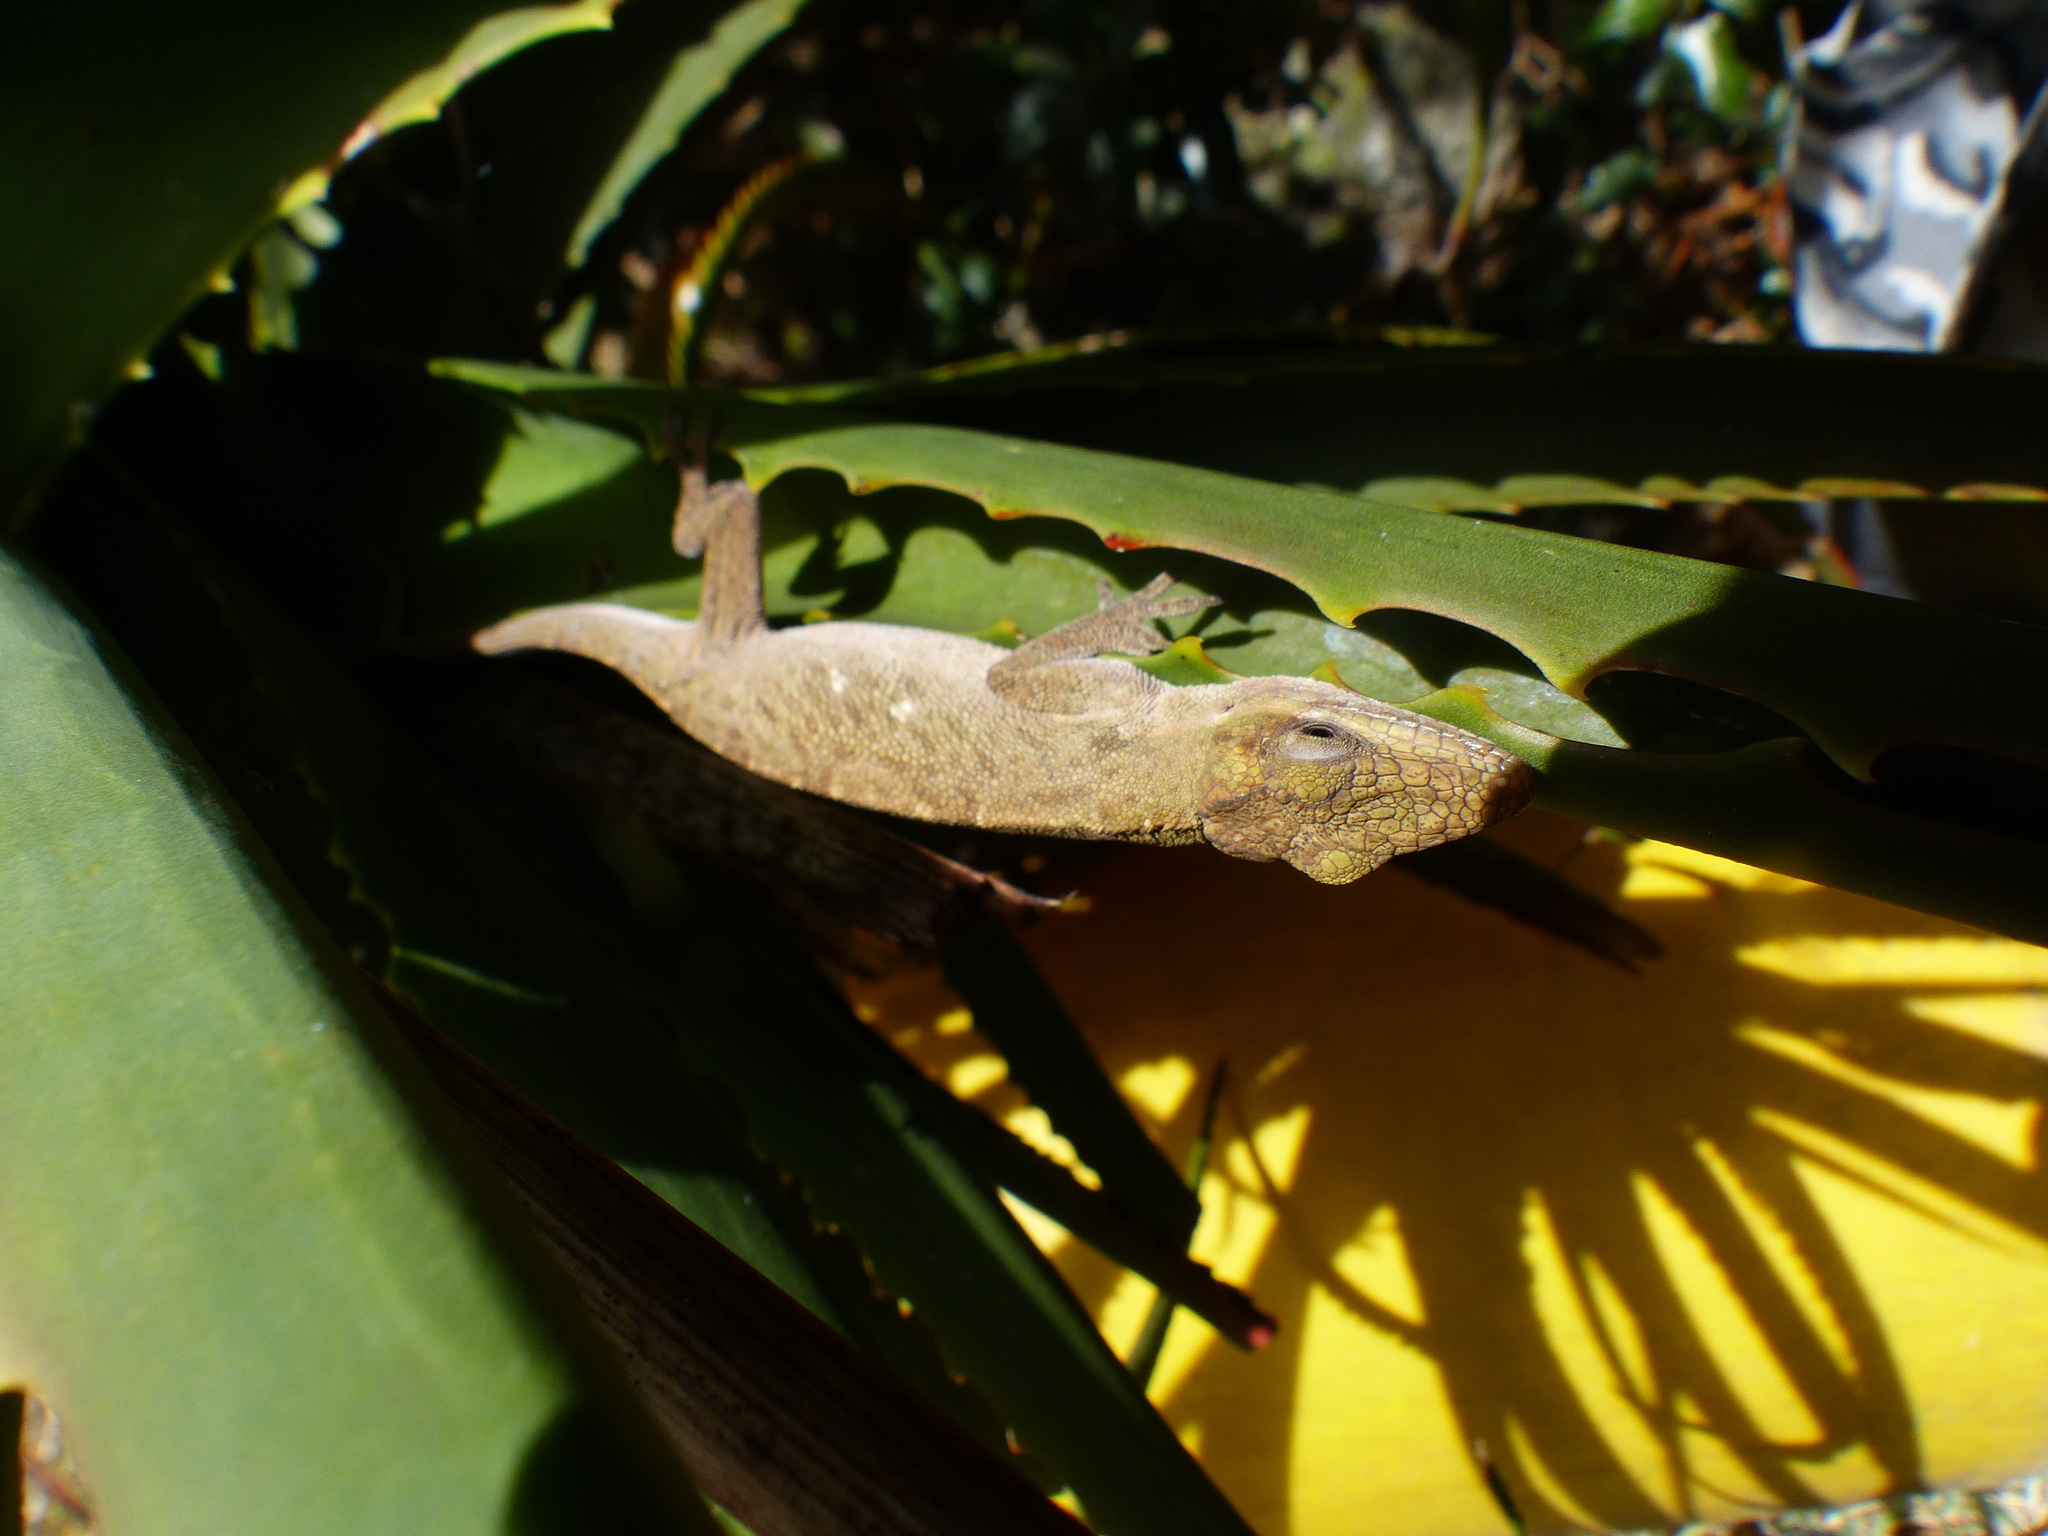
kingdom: Animalia
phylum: Chordata
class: Squamata
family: Dactyloidae
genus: Anolis
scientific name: Anolis richteri
